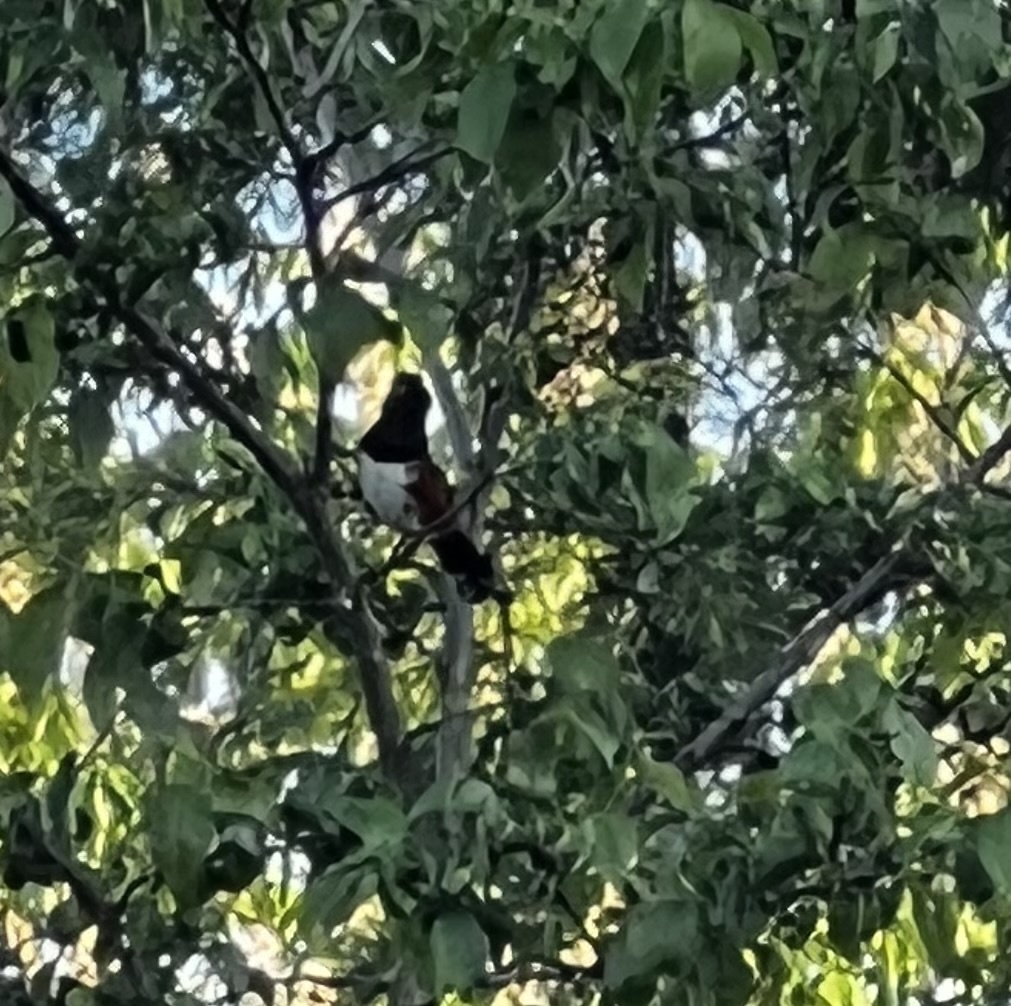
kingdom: Animalia
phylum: Chordata
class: Aves
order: Passeriformes
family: Passerellidae
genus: Pipilo
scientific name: Pipilo maculatus
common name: Spotted towhee
